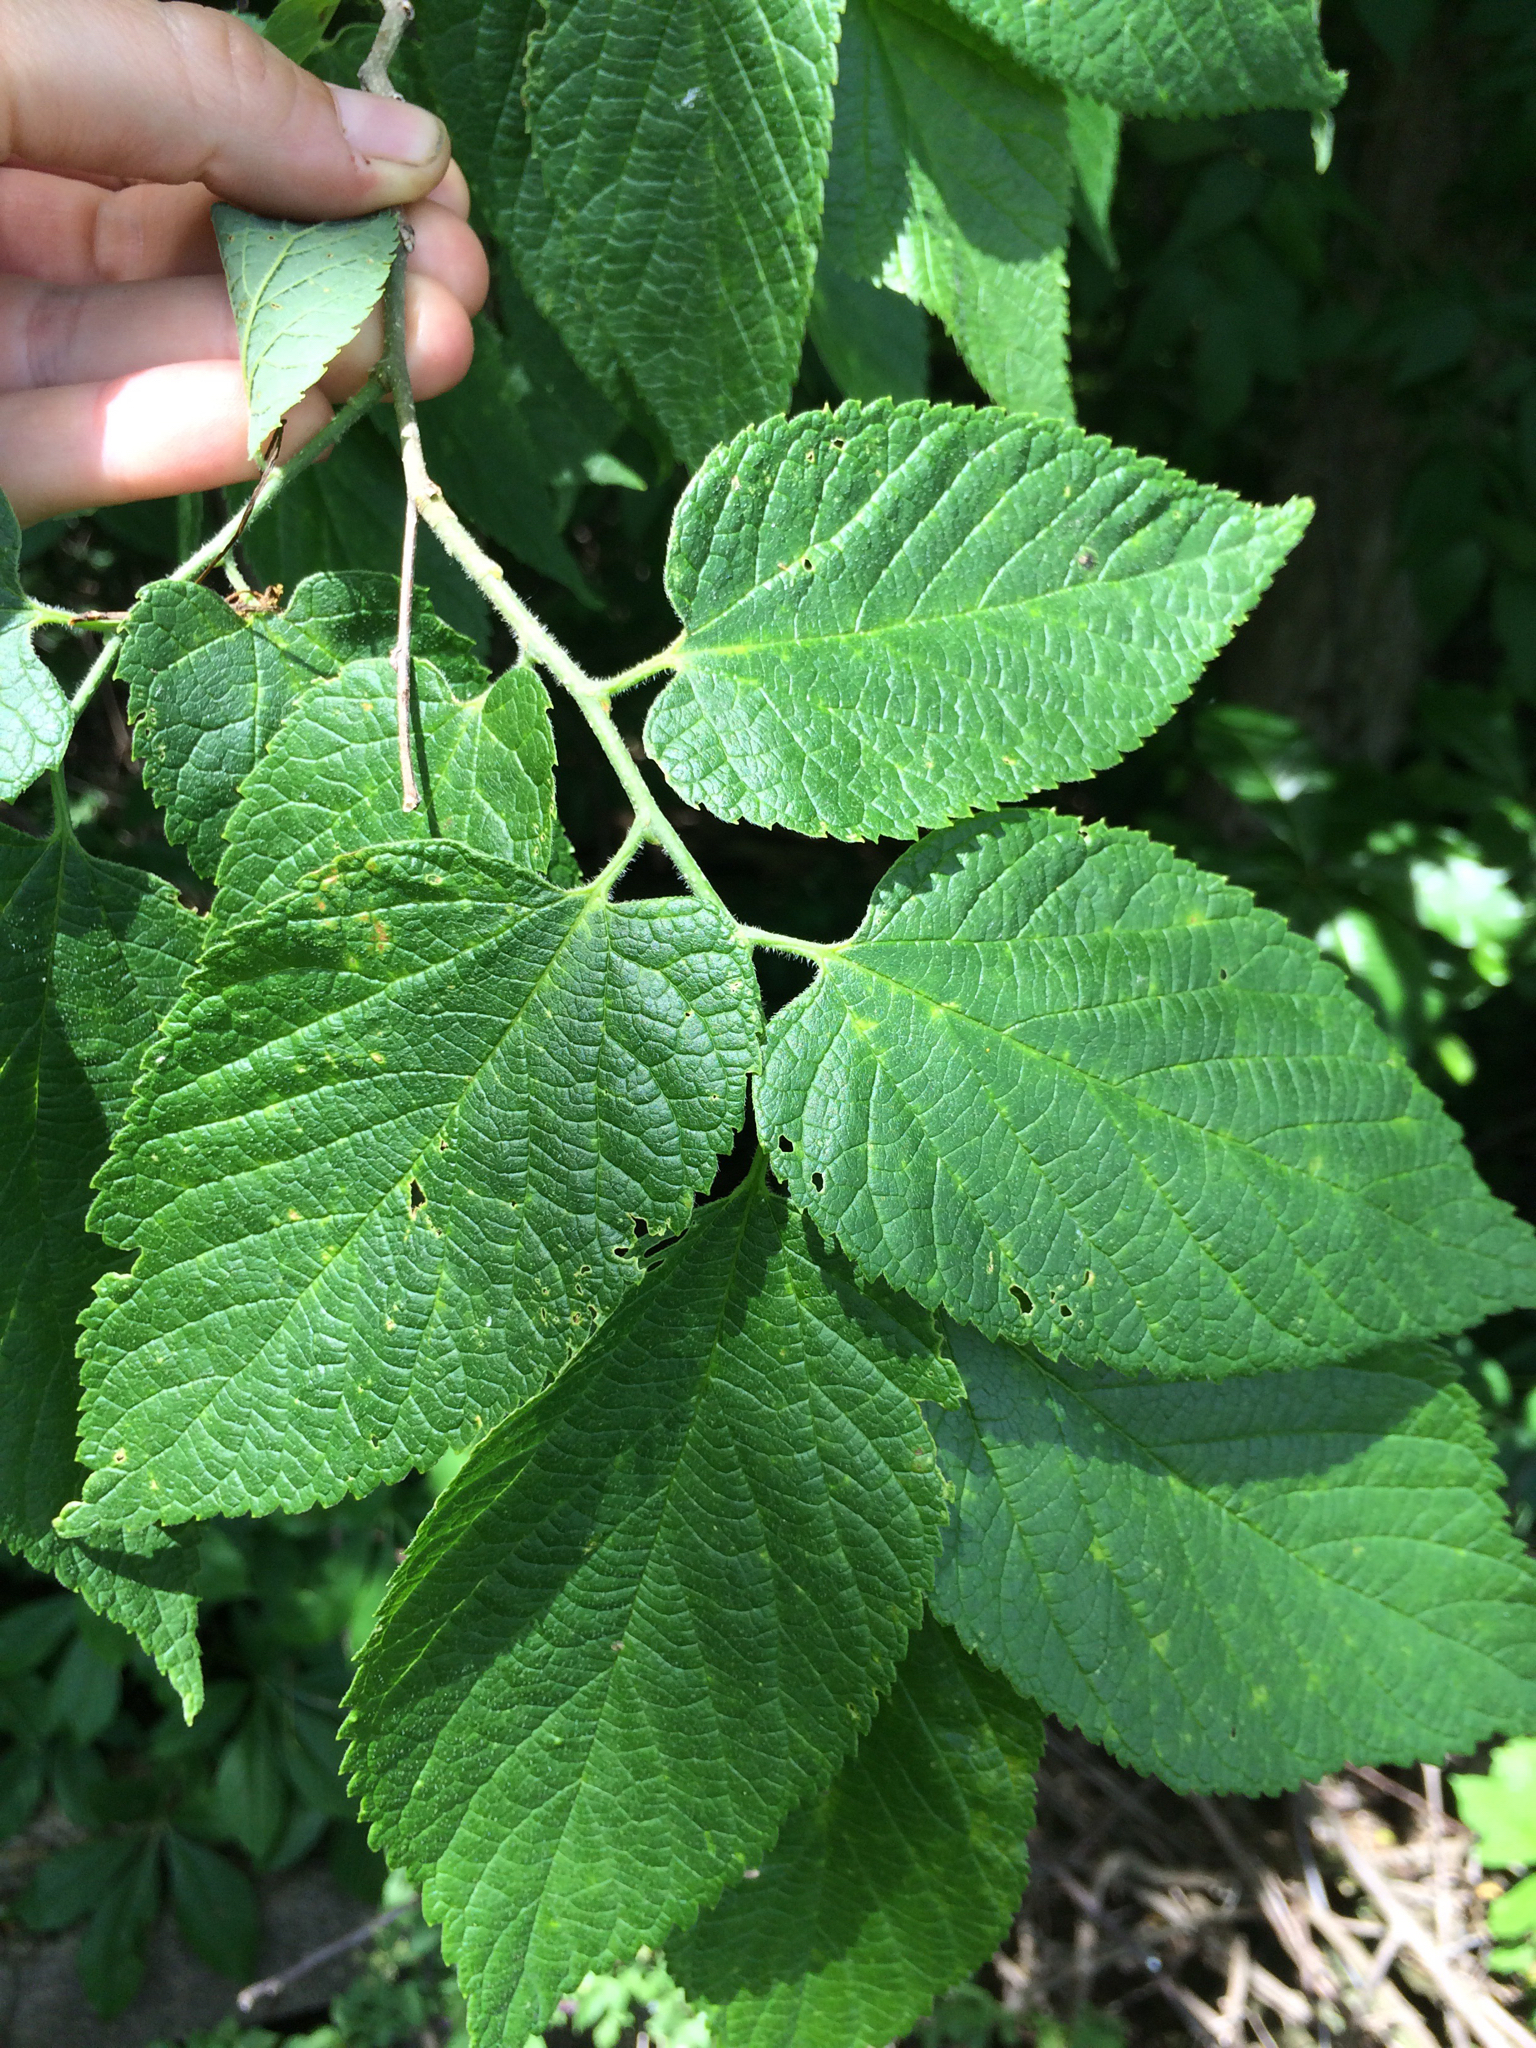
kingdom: Plantae
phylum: Tracheophyta
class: Magnoliopsida
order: Rosales
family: Cannabaceae
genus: Celtis
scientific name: Celtis occidentalis
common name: Common hackberry
